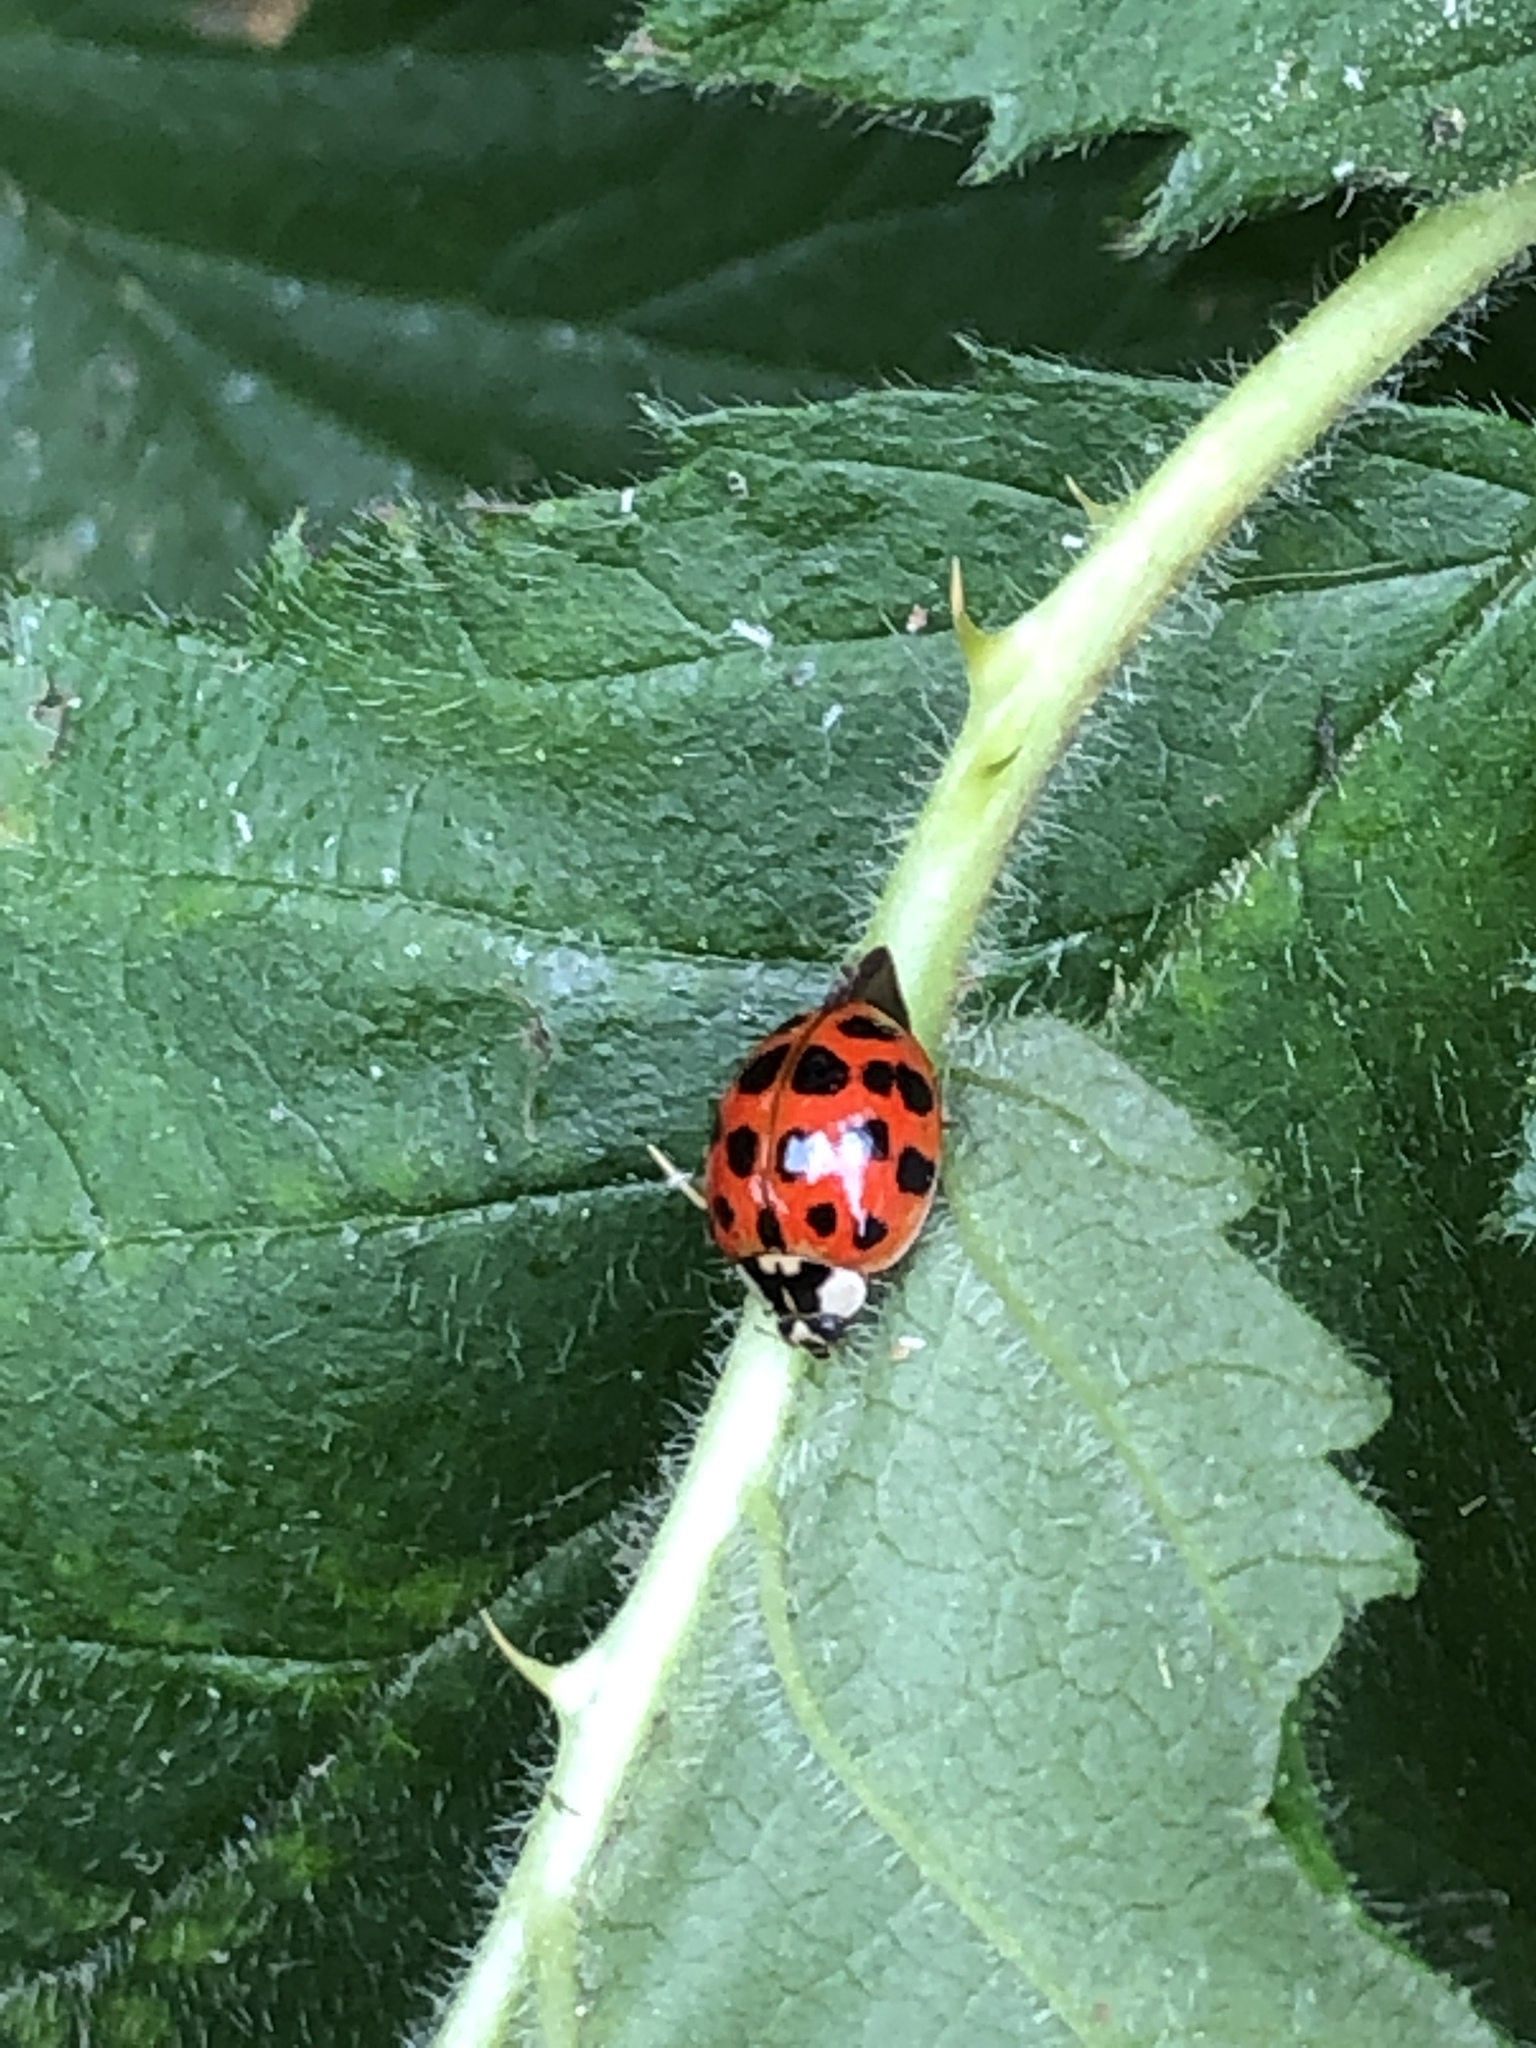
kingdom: Animalia
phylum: Arthropoda
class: Insecta
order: Coleoptera
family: Coccinellidae
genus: Harmonia
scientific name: Harmonia axyridis
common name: Harlequin ladybird
